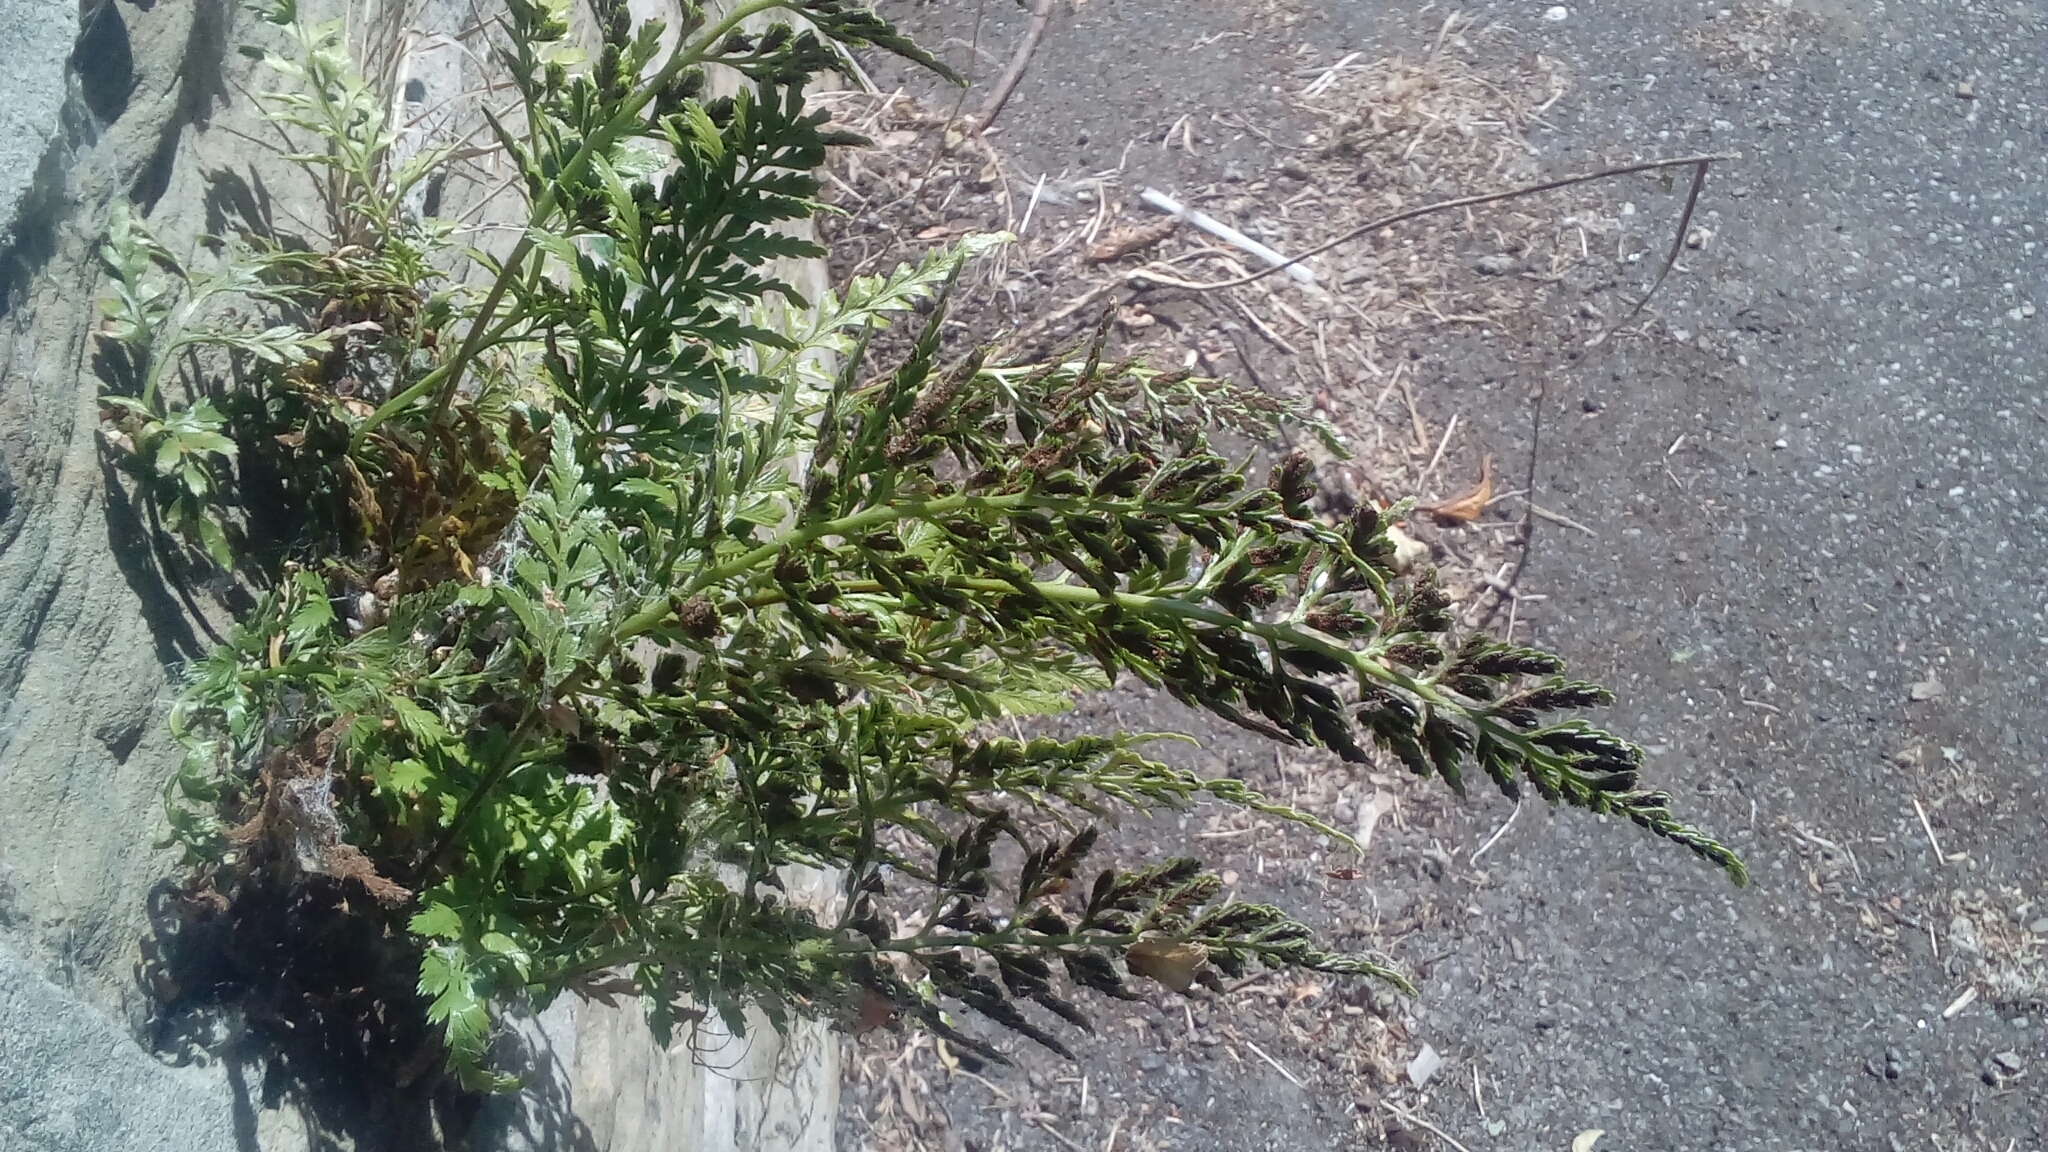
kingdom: Plantae
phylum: Tracheophyta
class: Polypodiopsida
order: Polypodiales
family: Aspleniaceae
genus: Asplenium
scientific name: Asplenium adiantum-nigrum
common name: Black spleenwort
